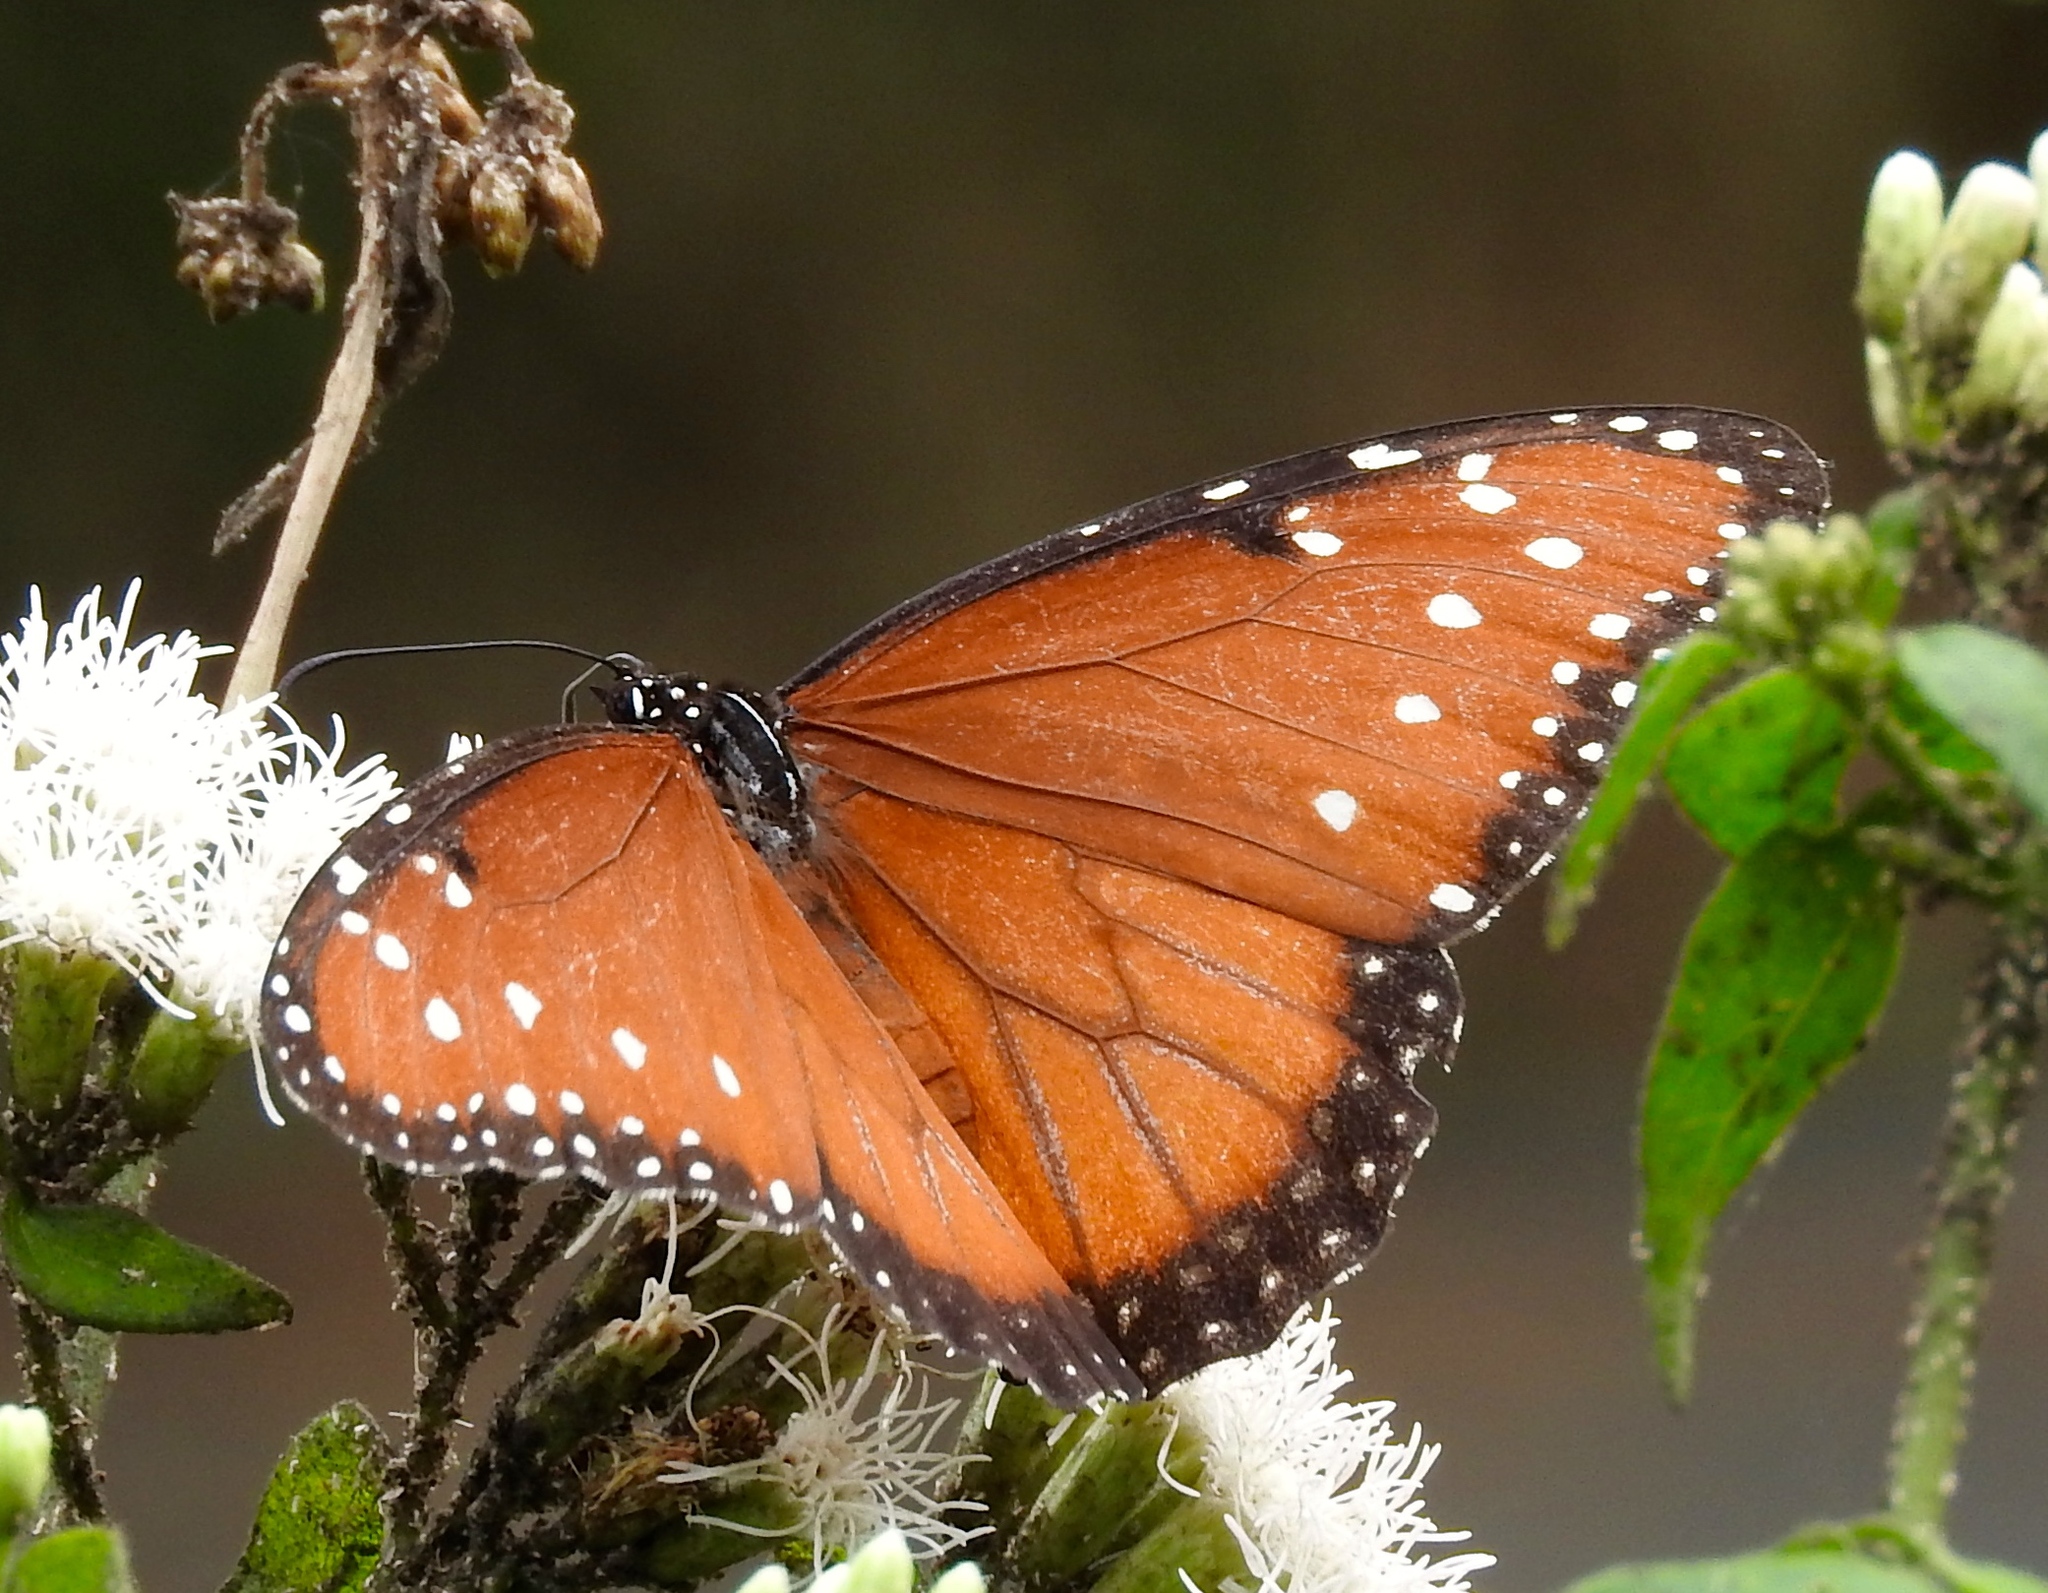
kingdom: Animalia
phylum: Arthropoda
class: Insecta
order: Lepidoptera
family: Nymphalidae
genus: Danaus
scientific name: Danaus gilippus
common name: Queen
